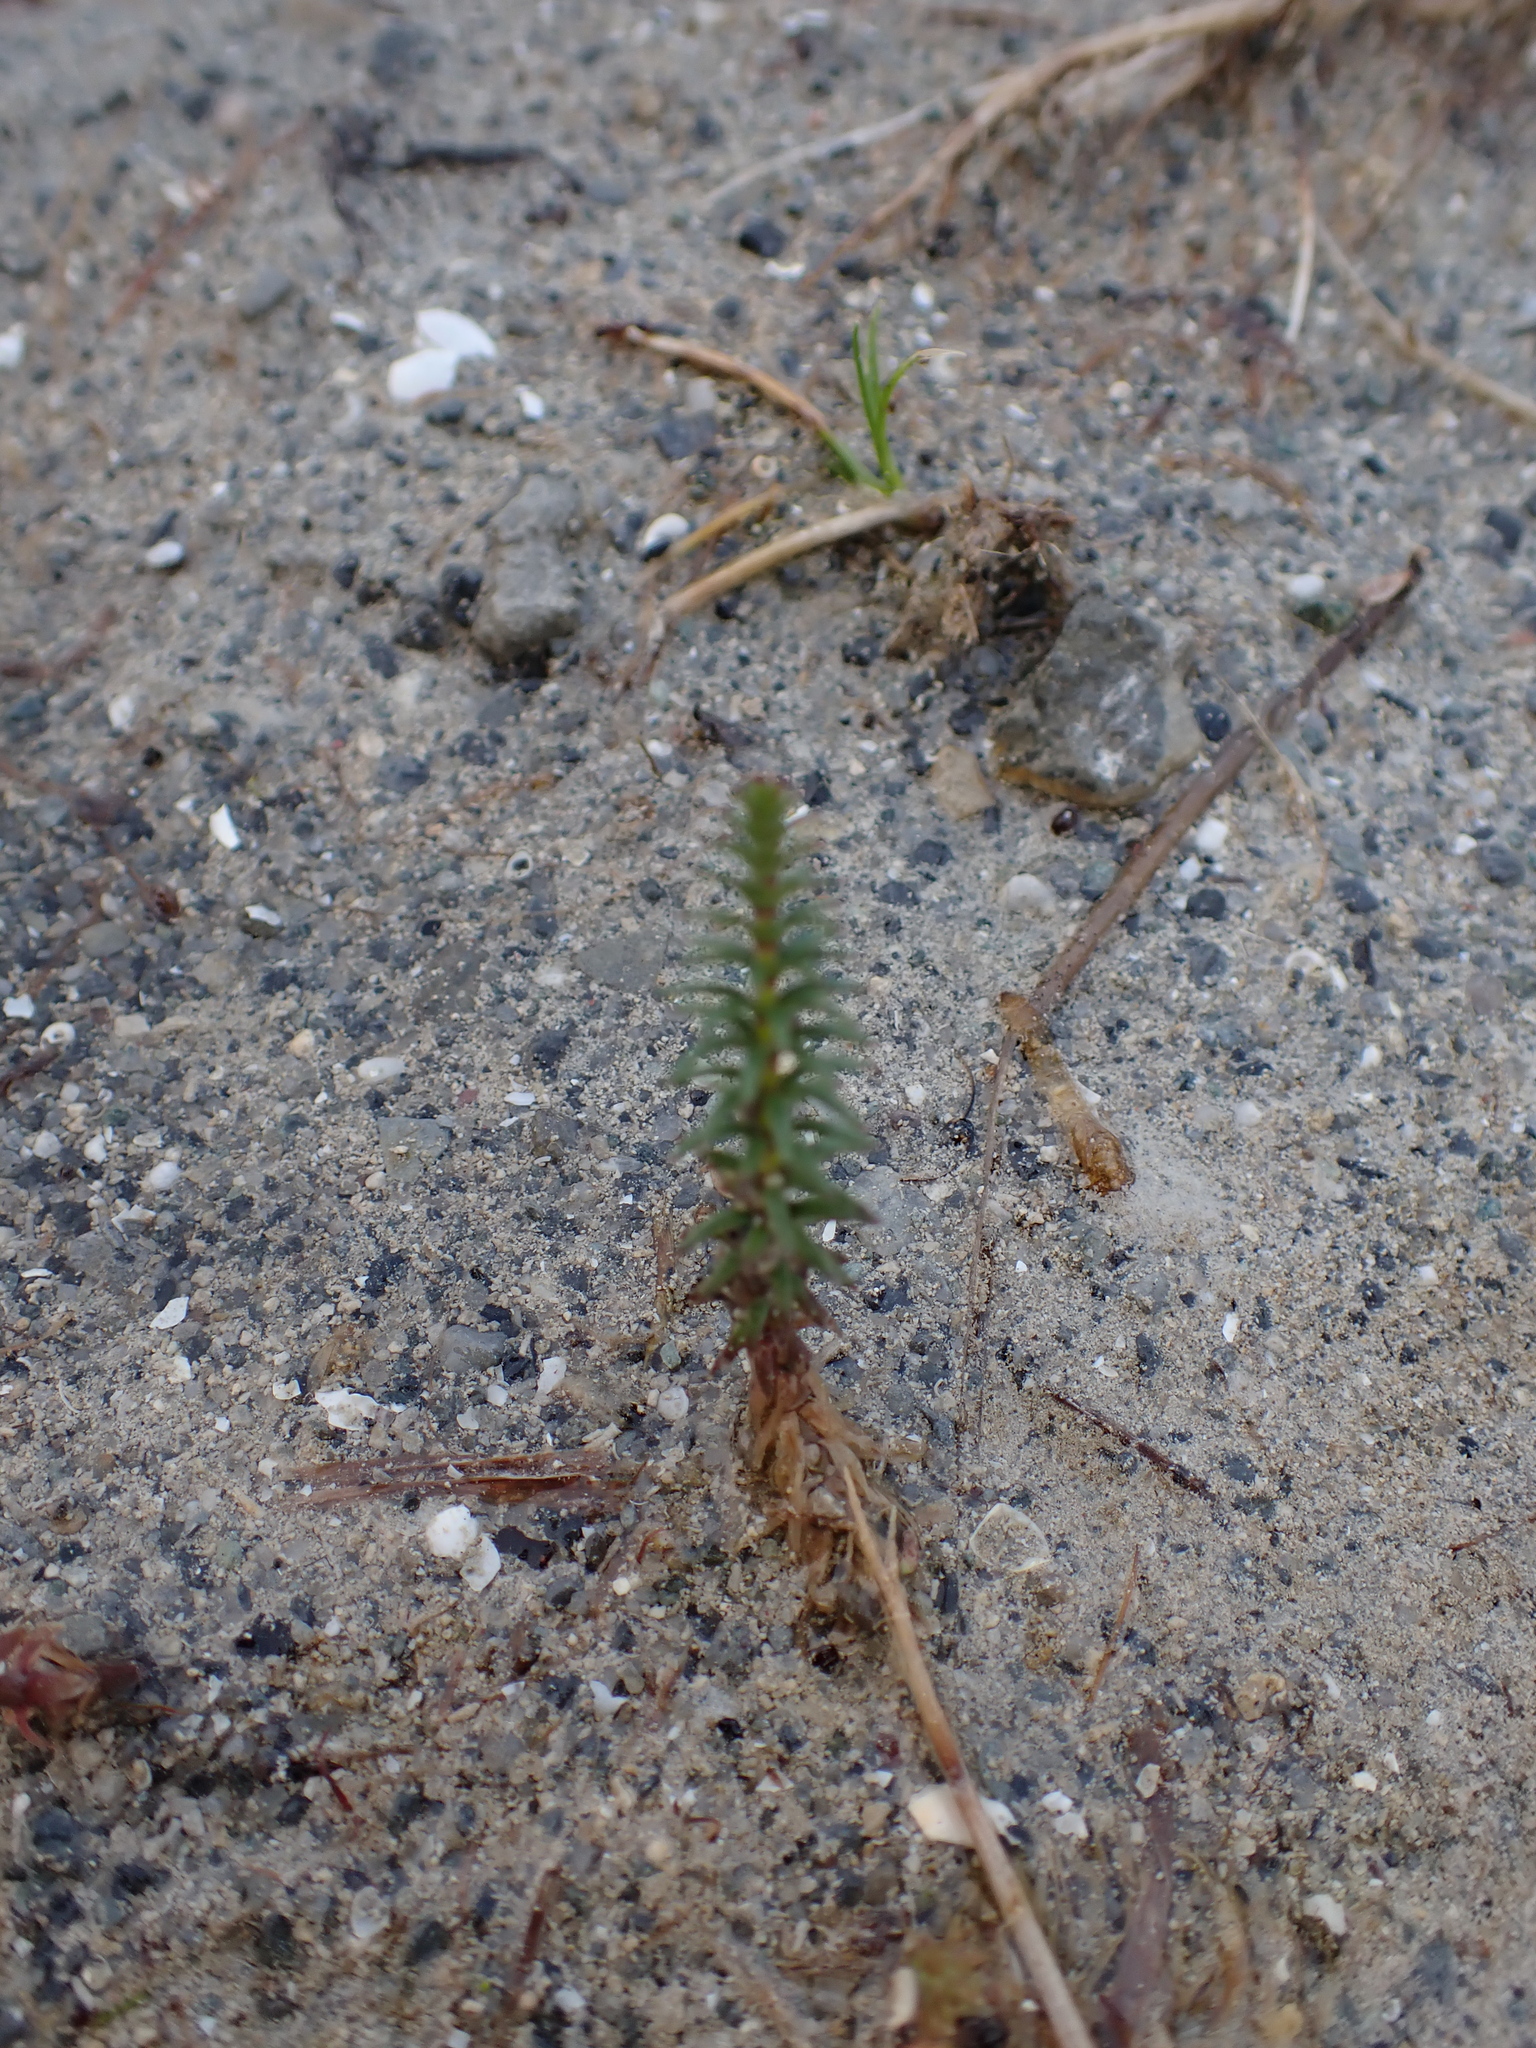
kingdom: Plantae
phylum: Tracheophyta
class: Magnoliopsida
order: Lamiales
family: Plantaginaceae
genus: Hippuris
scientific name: Hippuris vulgaris
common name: Mare's-tail
